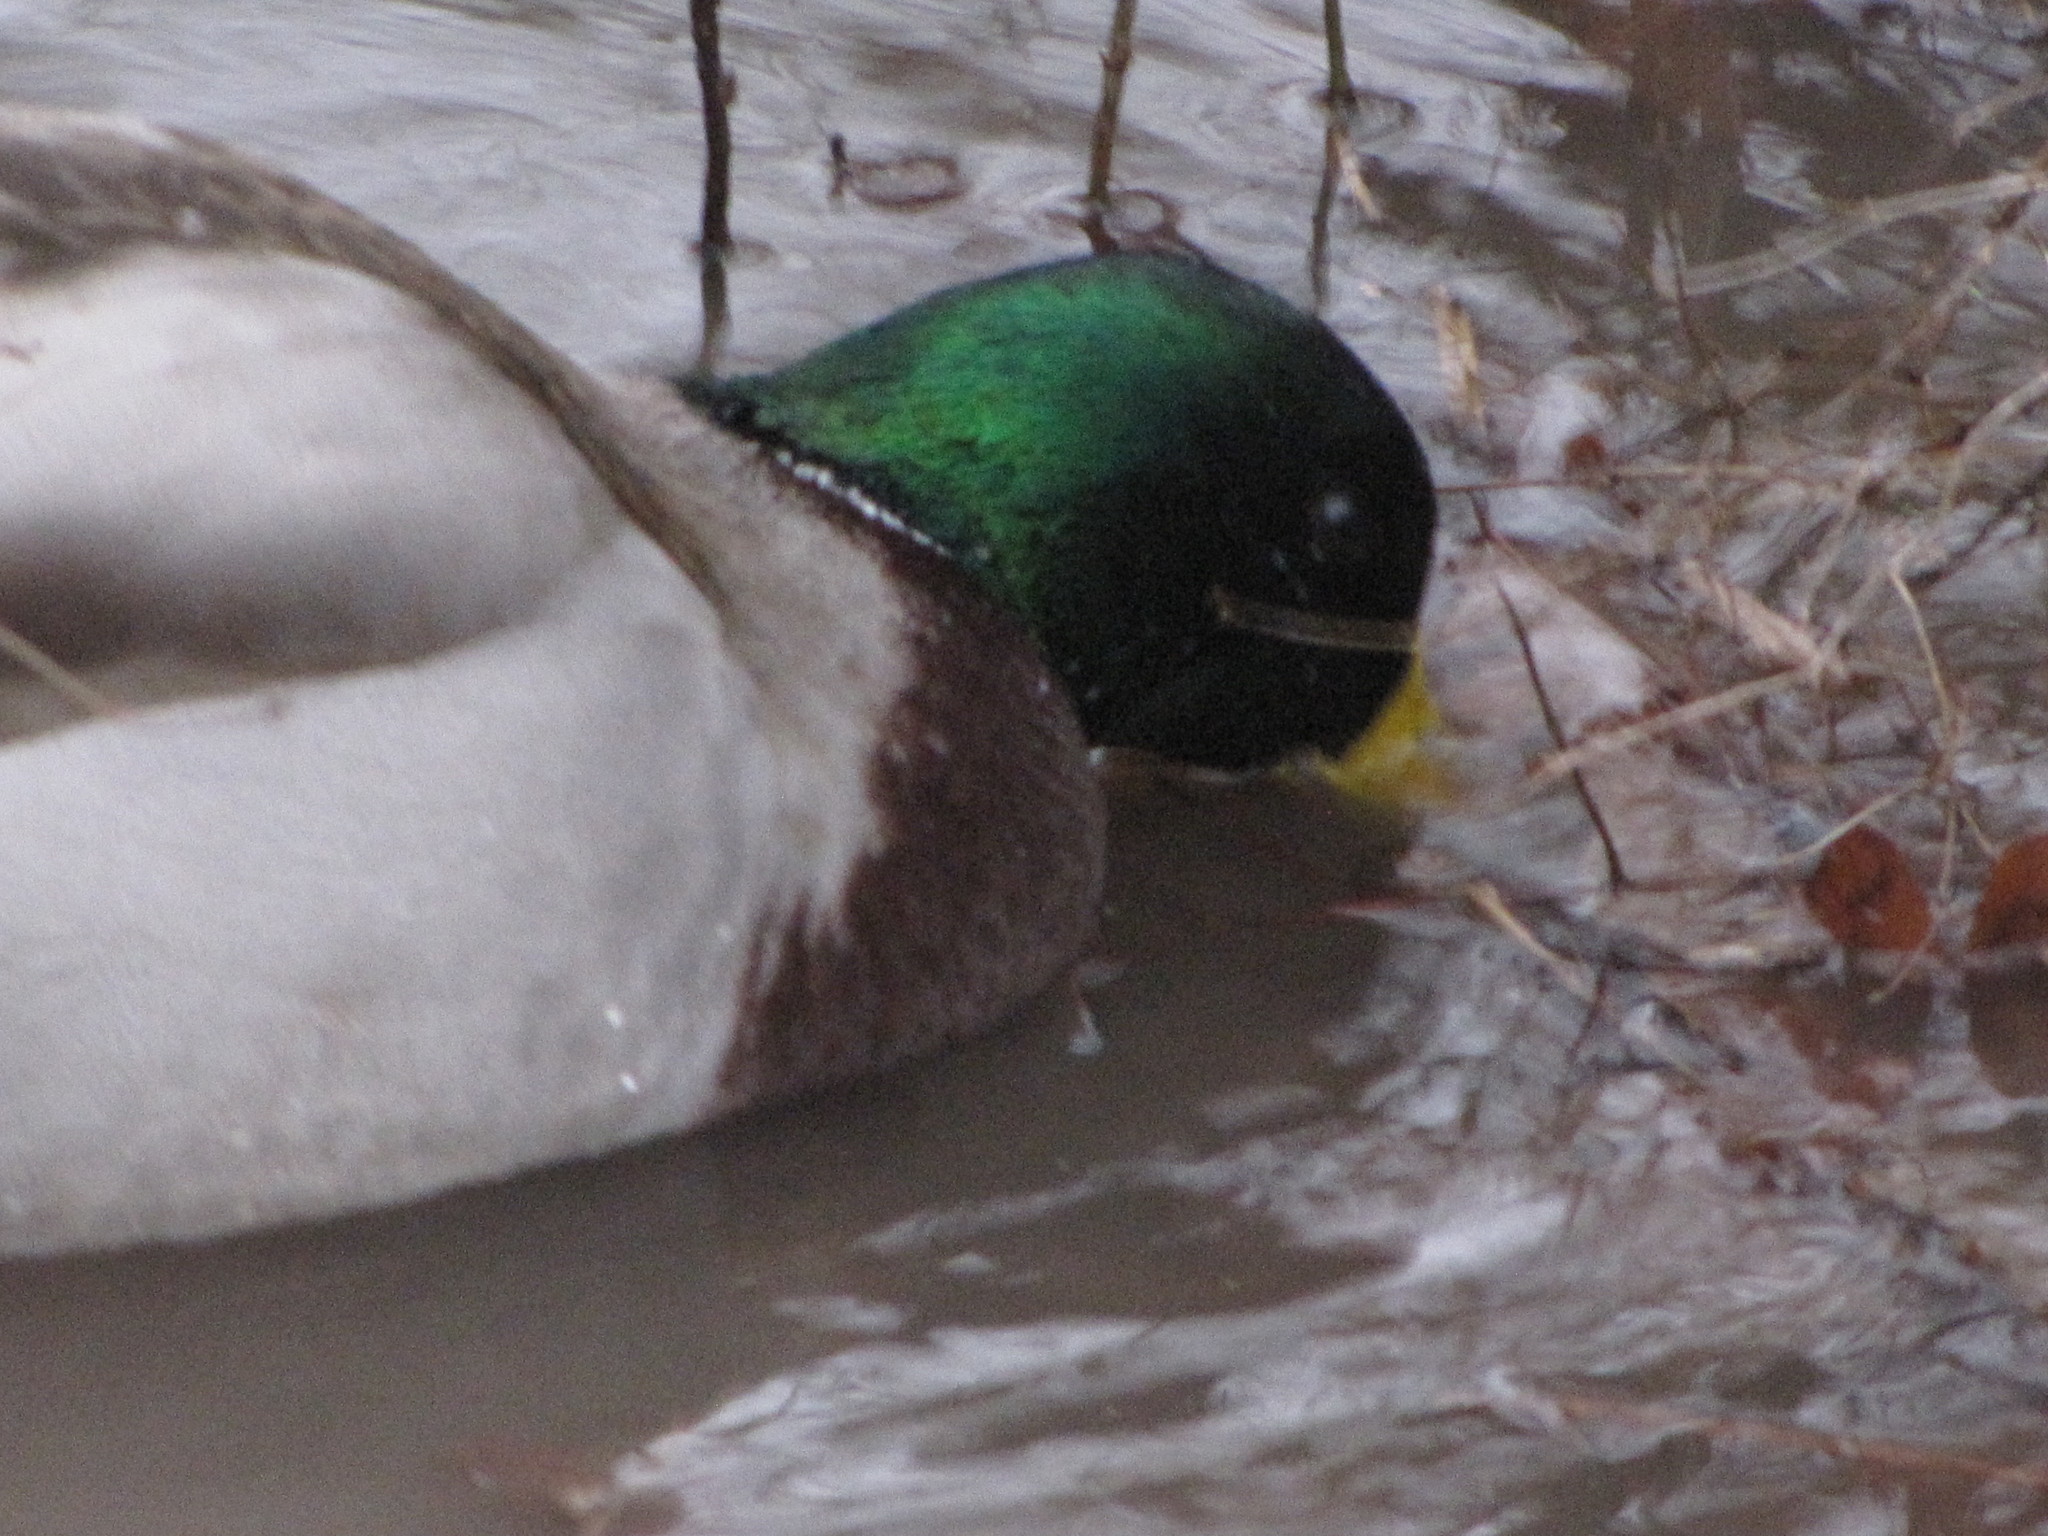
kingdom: Animalia
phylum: Chordata
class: Aves
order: Anseriformes
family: Anatidae
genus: Anas
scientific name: Anas platyrhynchos
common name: Mallard
